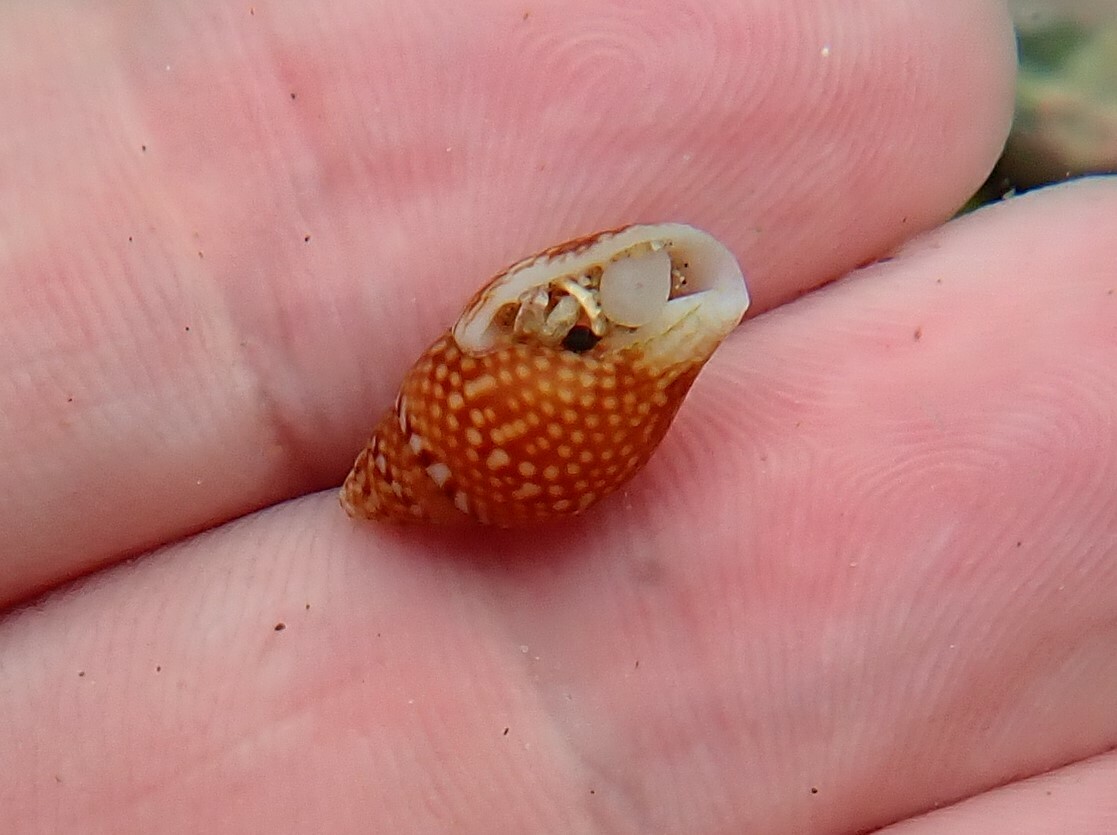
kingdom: Animalia
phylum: Mollusca
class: Gastropoda
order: Neogastropoda
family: Columbellidae
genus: Pardalinops de
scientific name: Pardalinops de Pardalinops testudinaria
